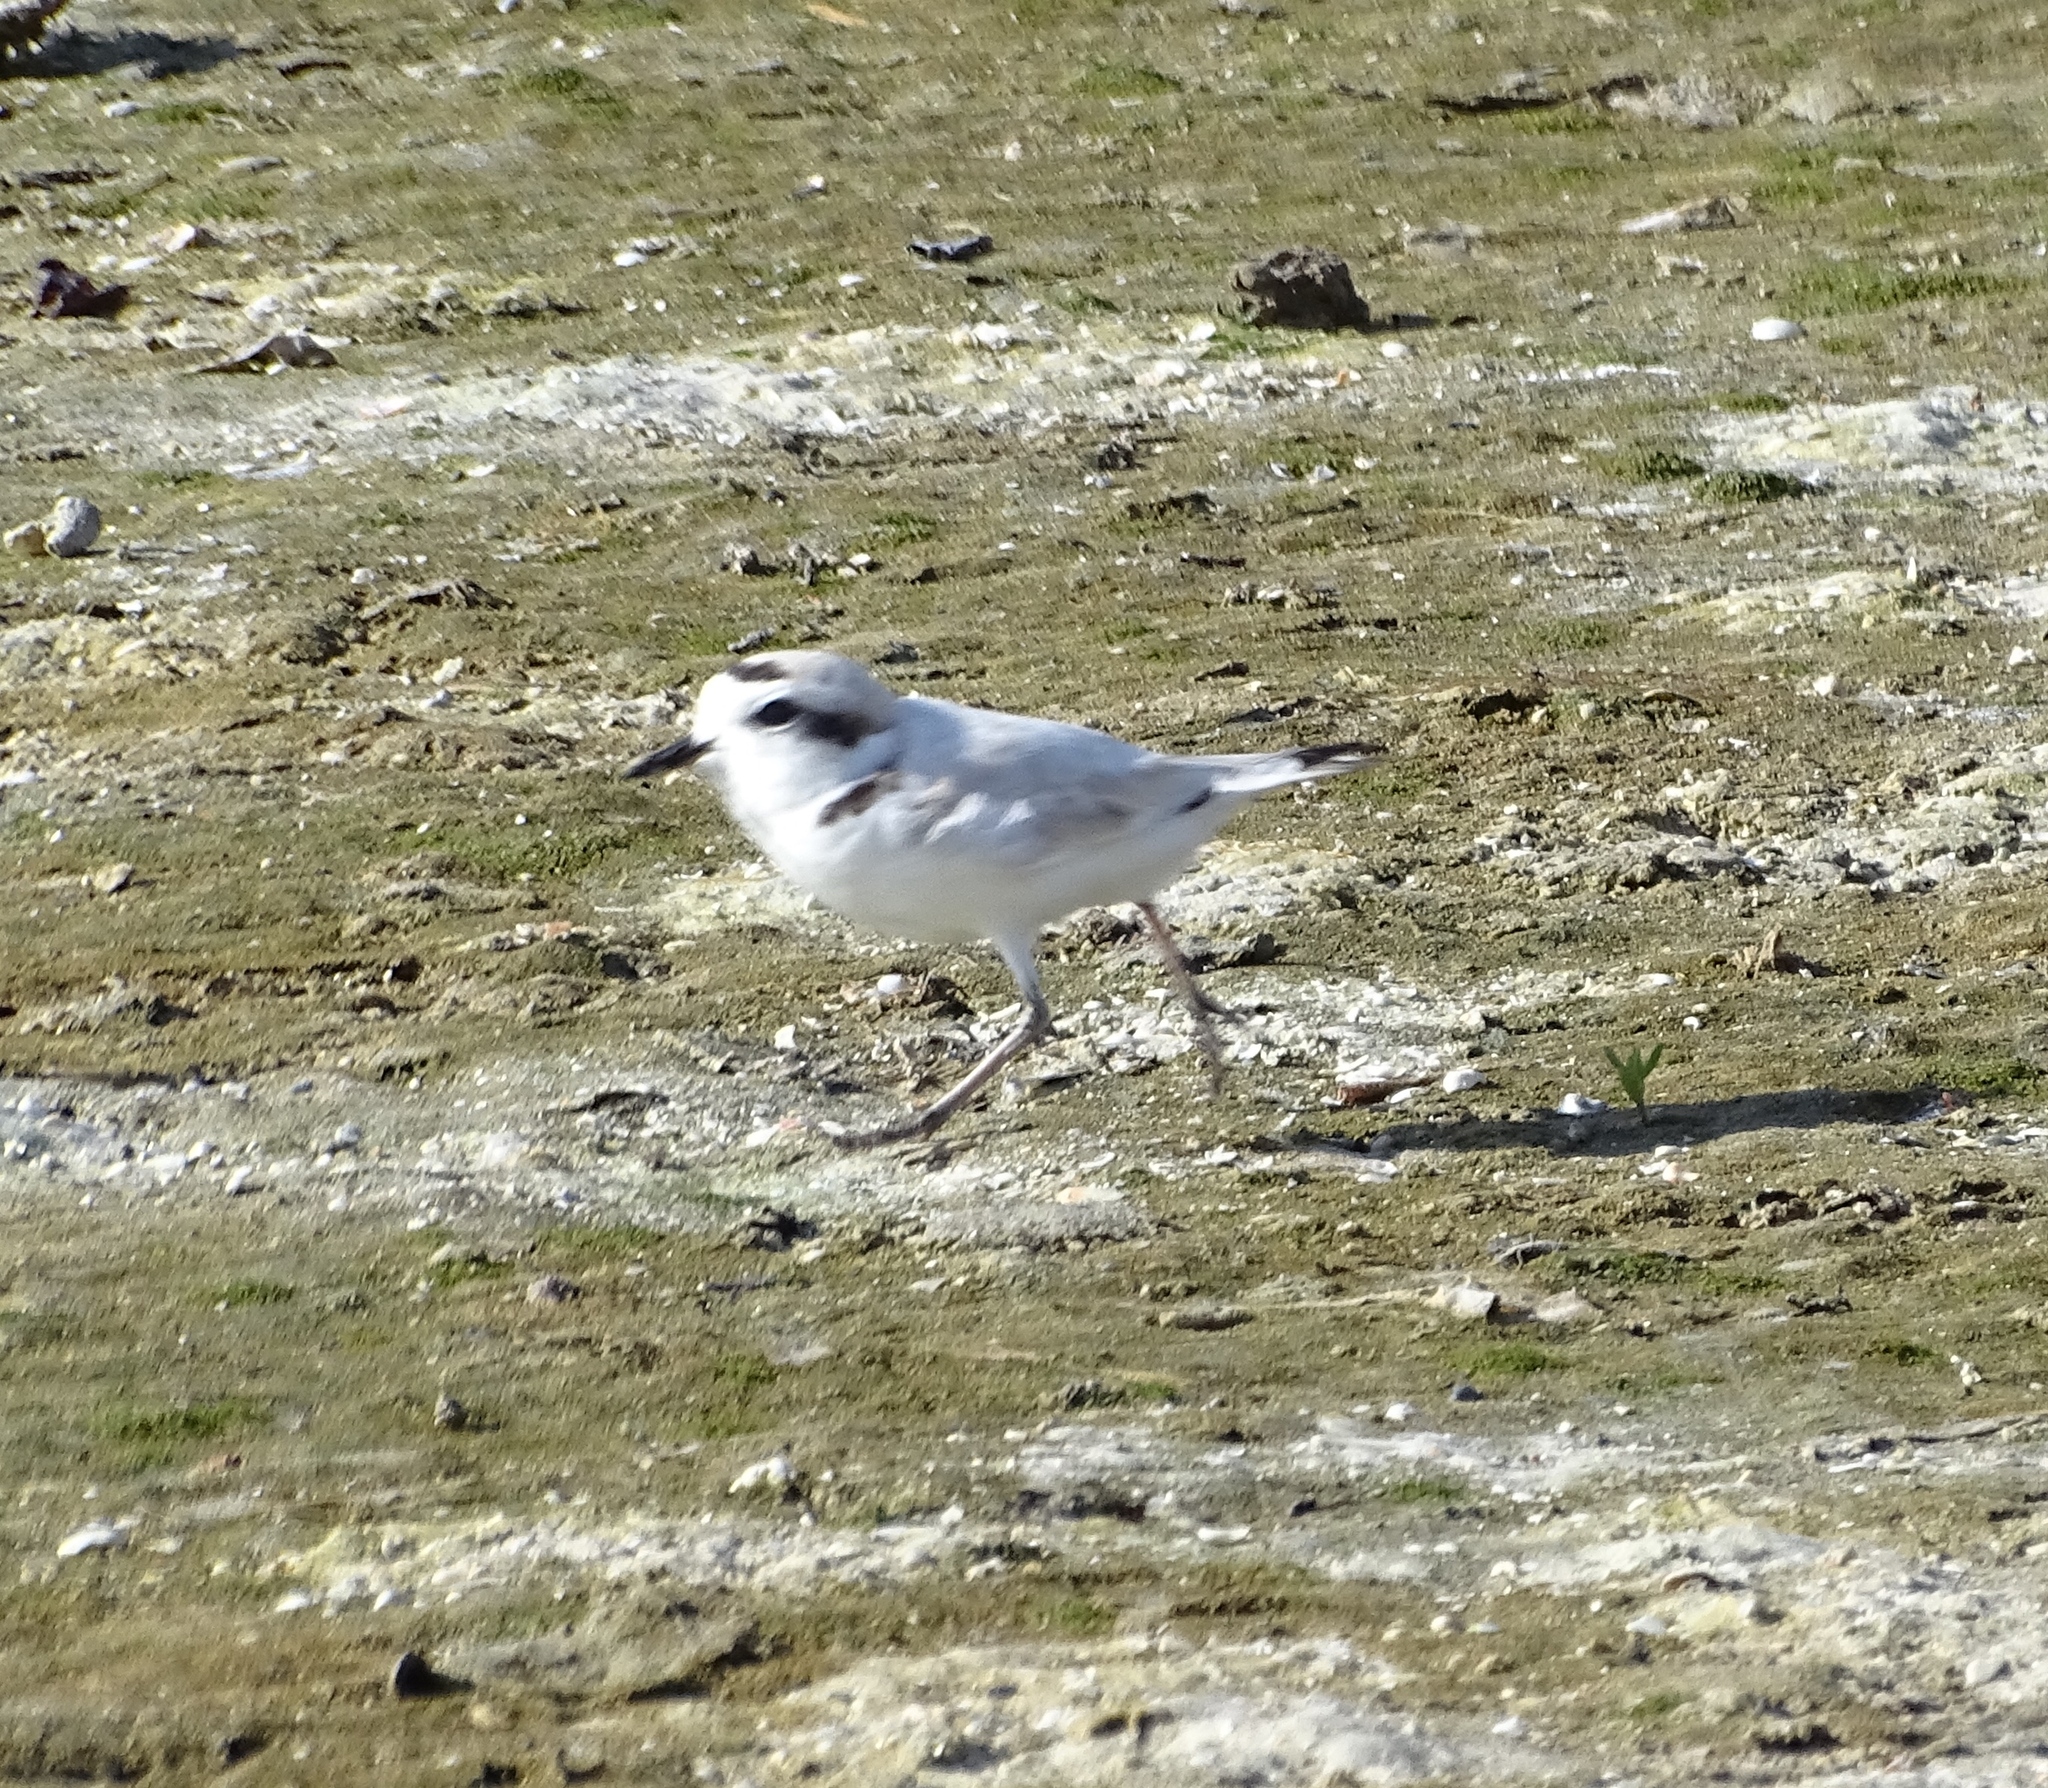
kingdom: Animalia
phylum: Chordata
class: Aves
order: Charadriiformes
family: Charadriidae
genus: Anarhynchus
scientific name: Anarhynchus
